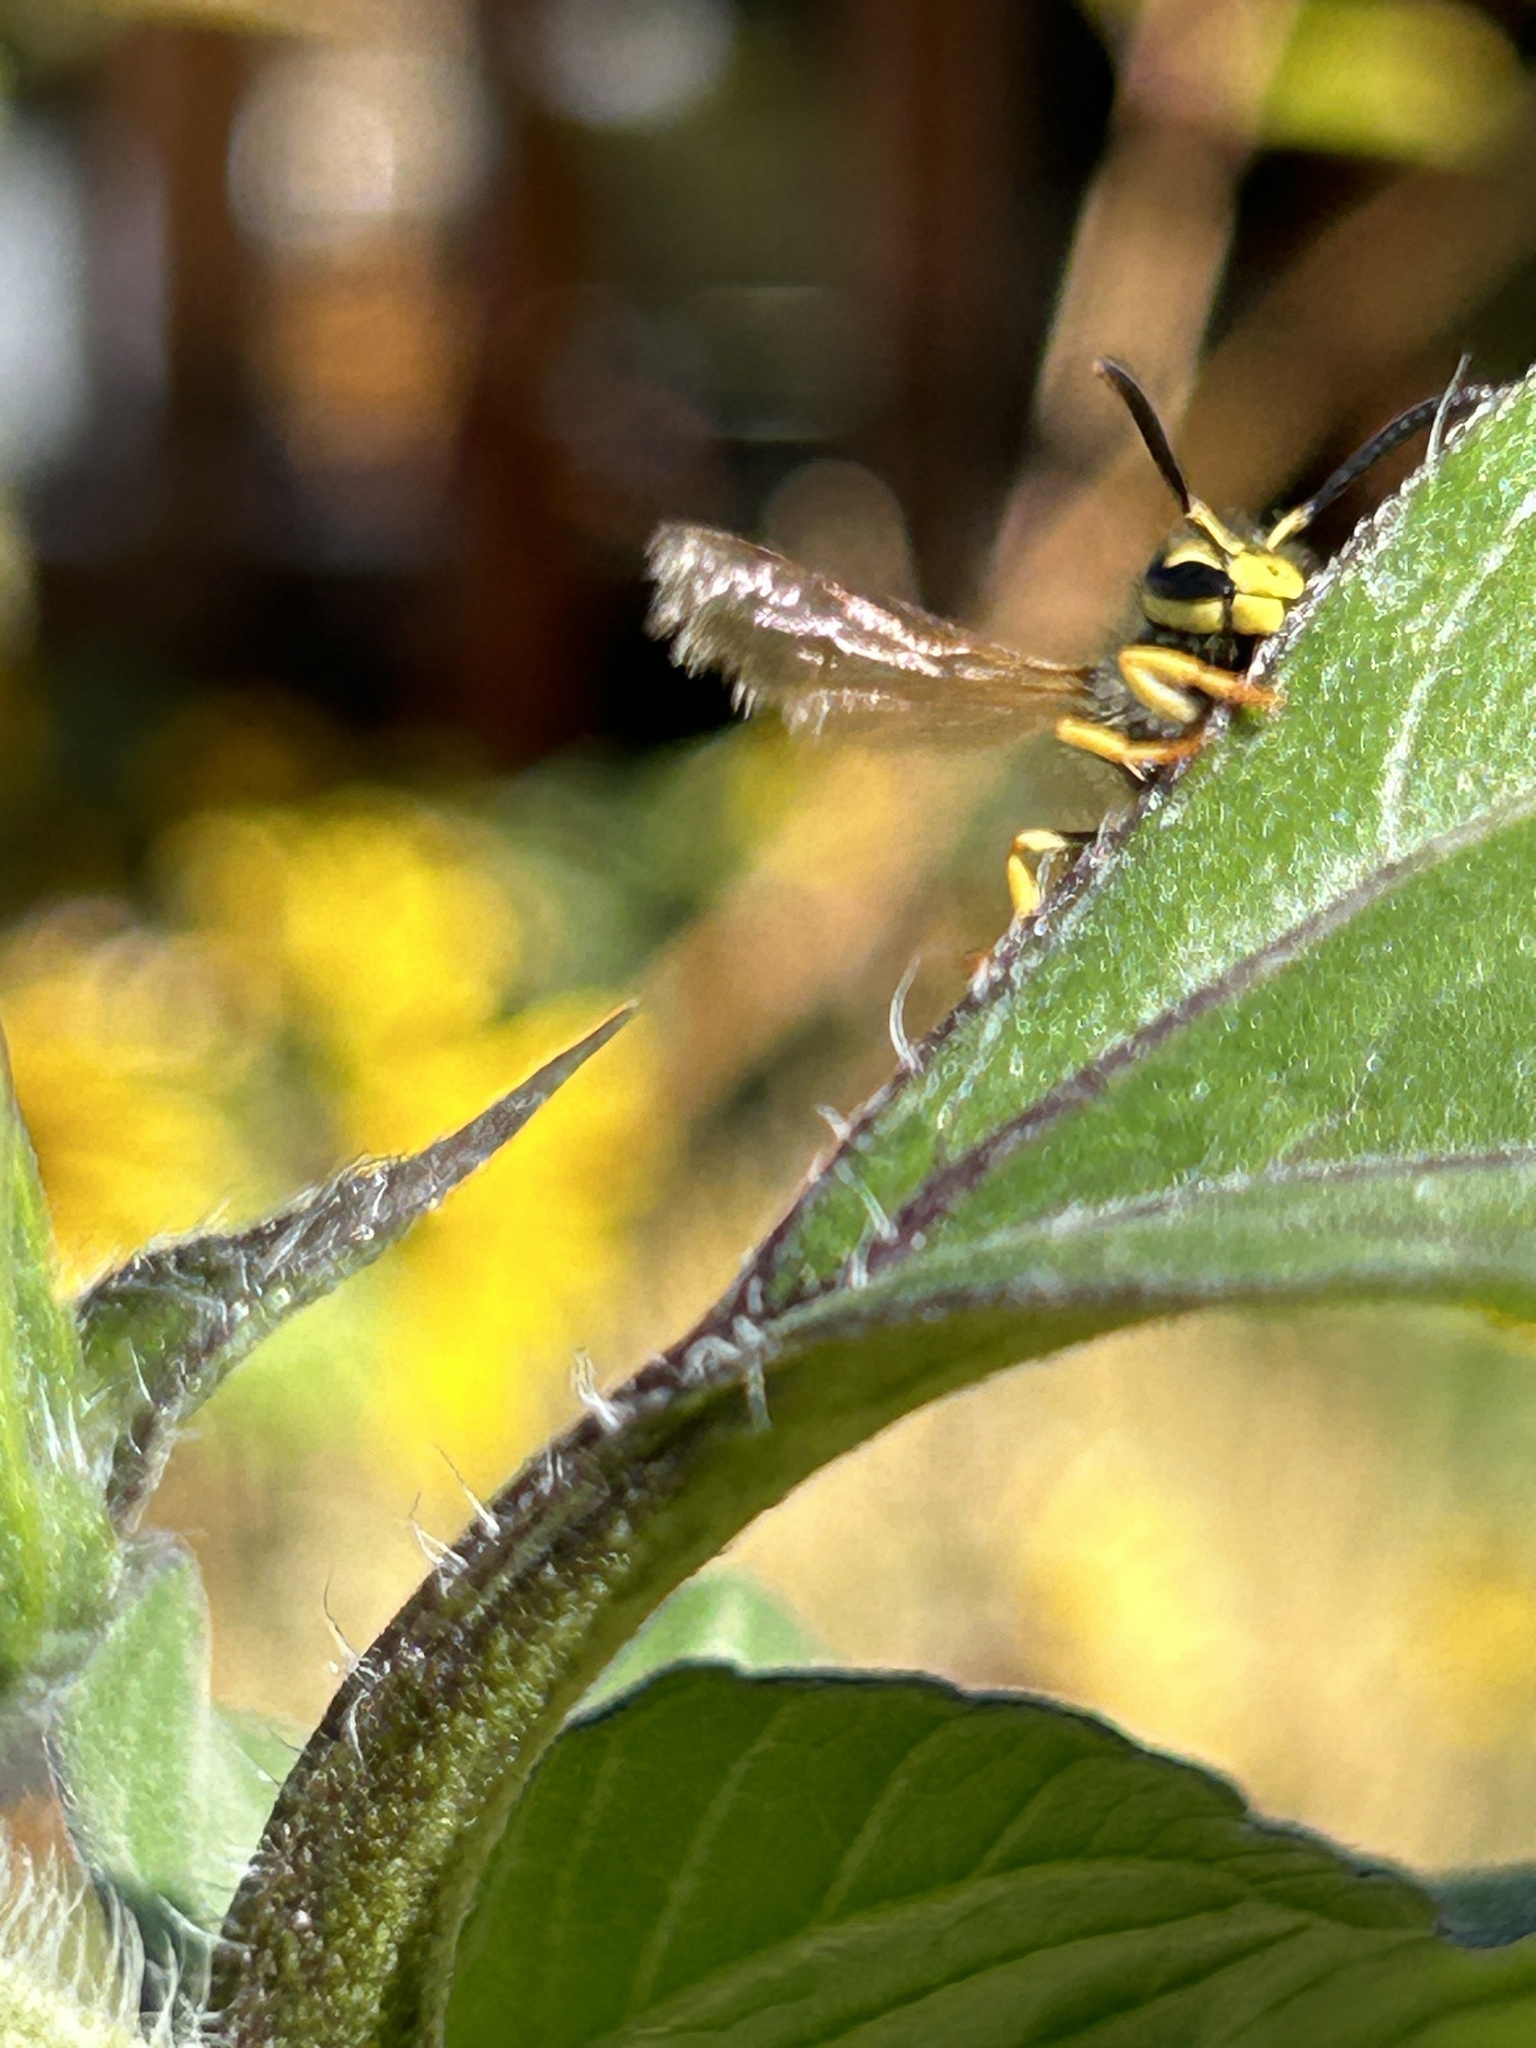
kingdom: Animalia
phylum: Arthropoda
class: Insecta
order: Hymenoptera
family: Vespidae
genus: Vespula
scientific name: Vespula pensylvanica
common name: Western yellowjacket
